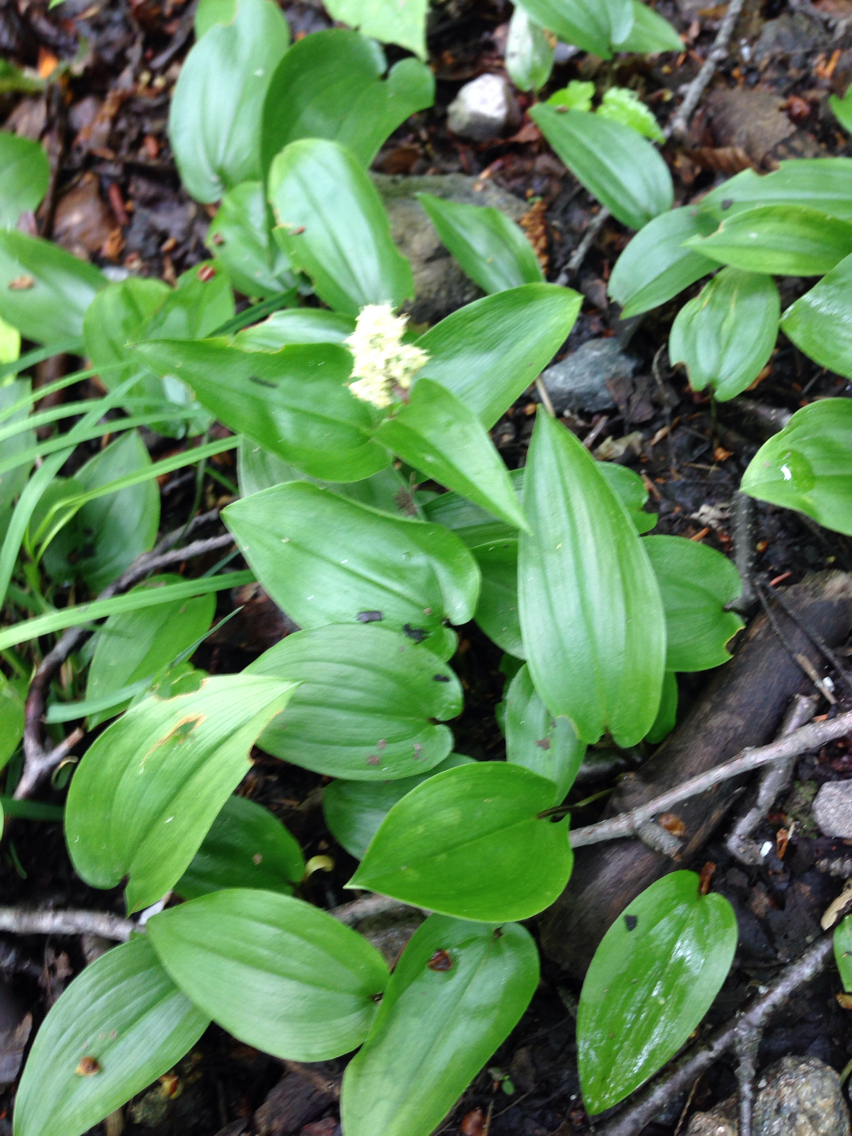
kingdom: Plantae
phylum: Tracheophyta
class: Liliopsida
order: Asparagales
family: Asparagaceae
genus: Maianthemum
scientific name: Maianthemum canadense
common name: False lily-of-the-valley
